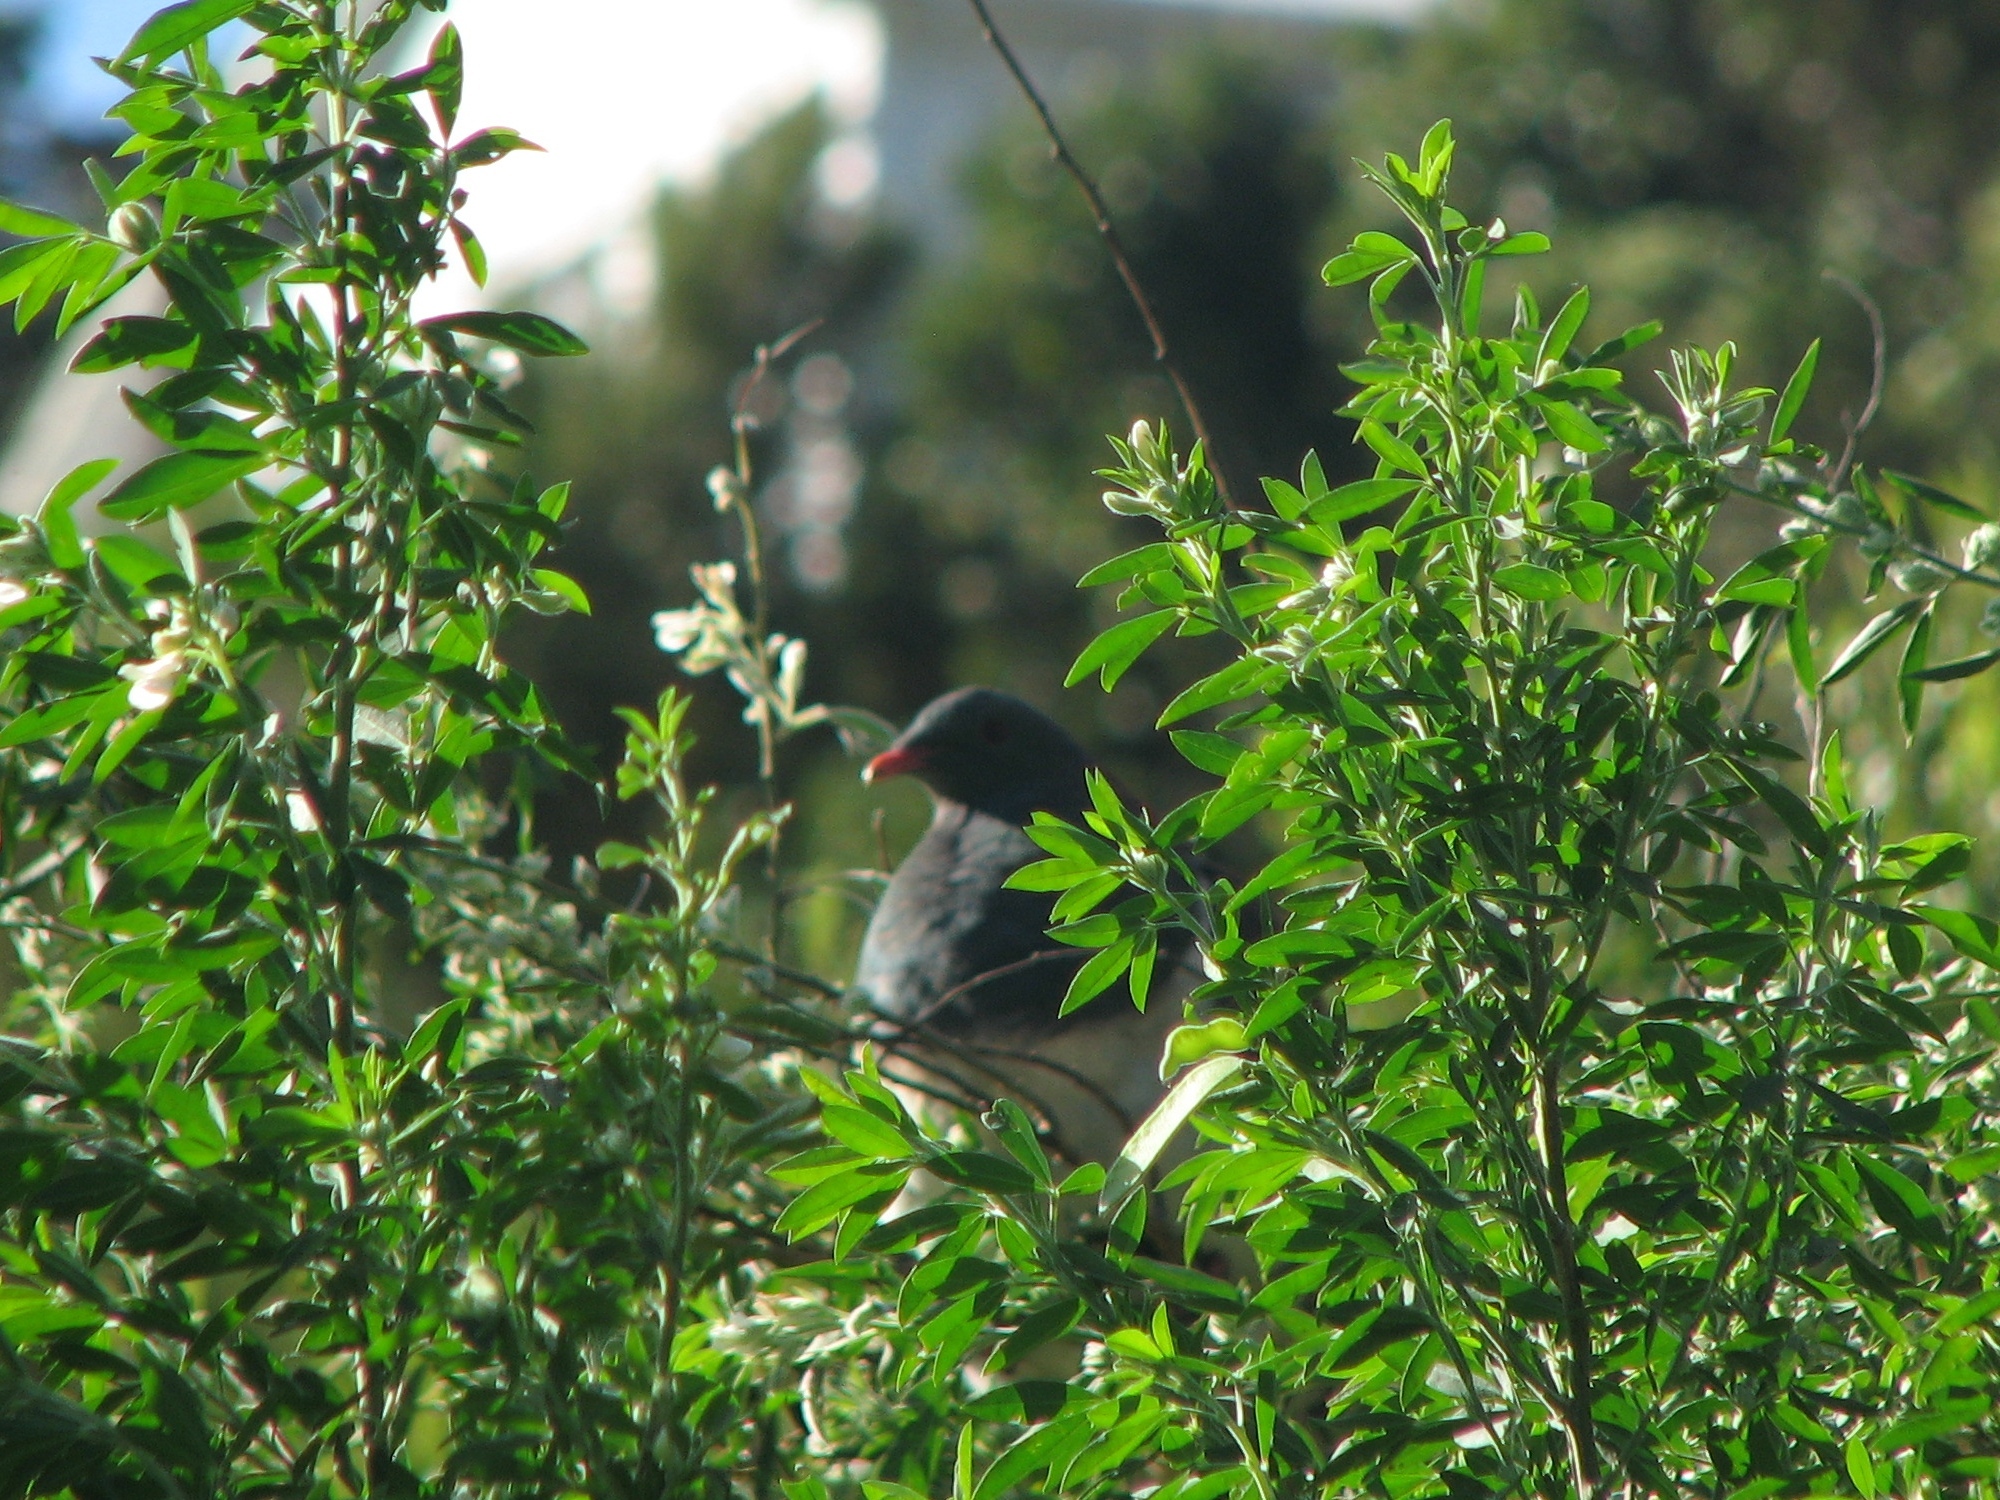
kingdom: Animalia
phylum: Chordata
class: Aves
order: Columbiformes
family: Columbidae
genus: Hemiphaga
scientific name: Hemiphaga novaeseelandiae
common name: New zealand pigeon
